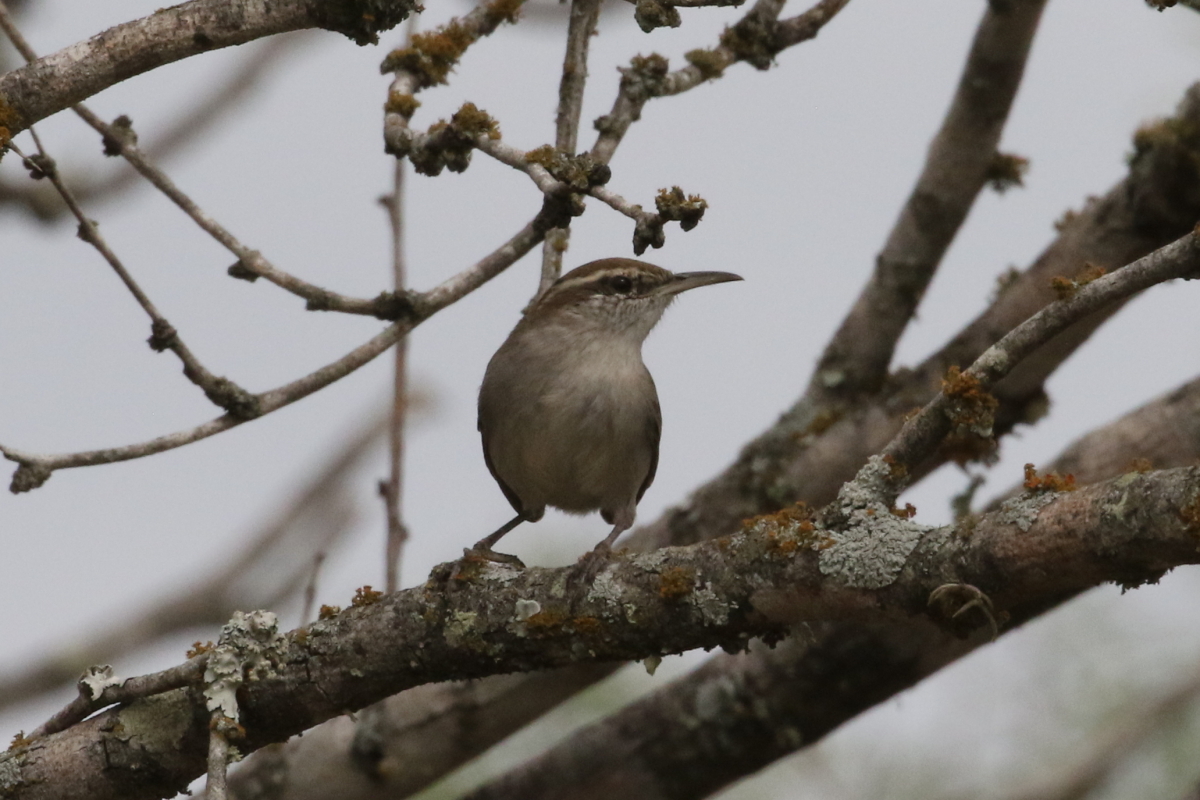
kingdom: Animalia
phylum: Chordata
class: Aves
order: Passeriformes
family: Troglodytidae
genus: Thryomanes
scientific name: Thryomanes bewickii
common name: Bewick's wren
